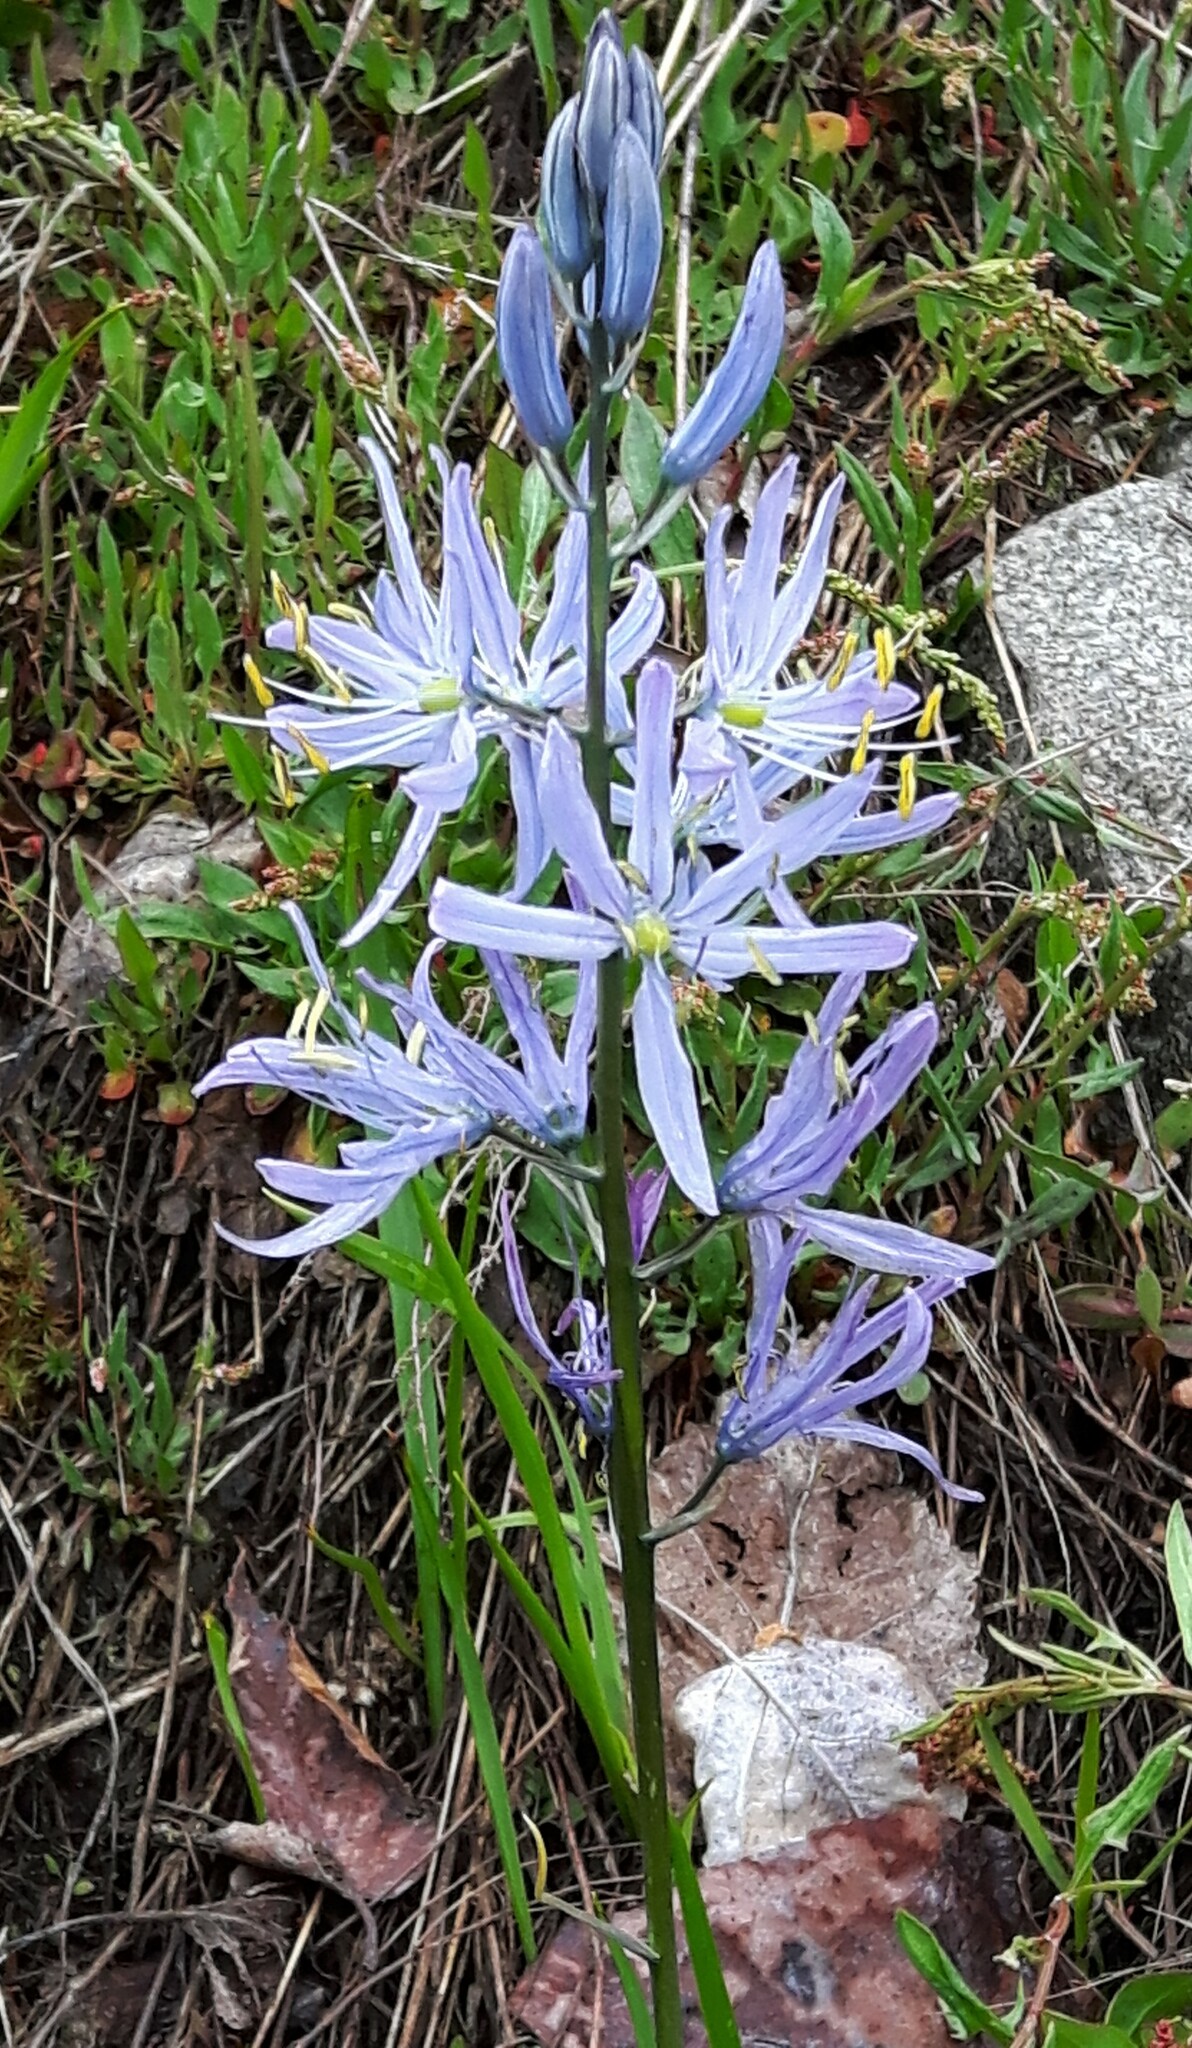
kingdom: Plantae
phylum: Tracheophyta
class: Liliopsida
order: Asparagales
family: Asparagaceae
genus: Camassia
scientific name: Camassia quamash
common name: Common camas
